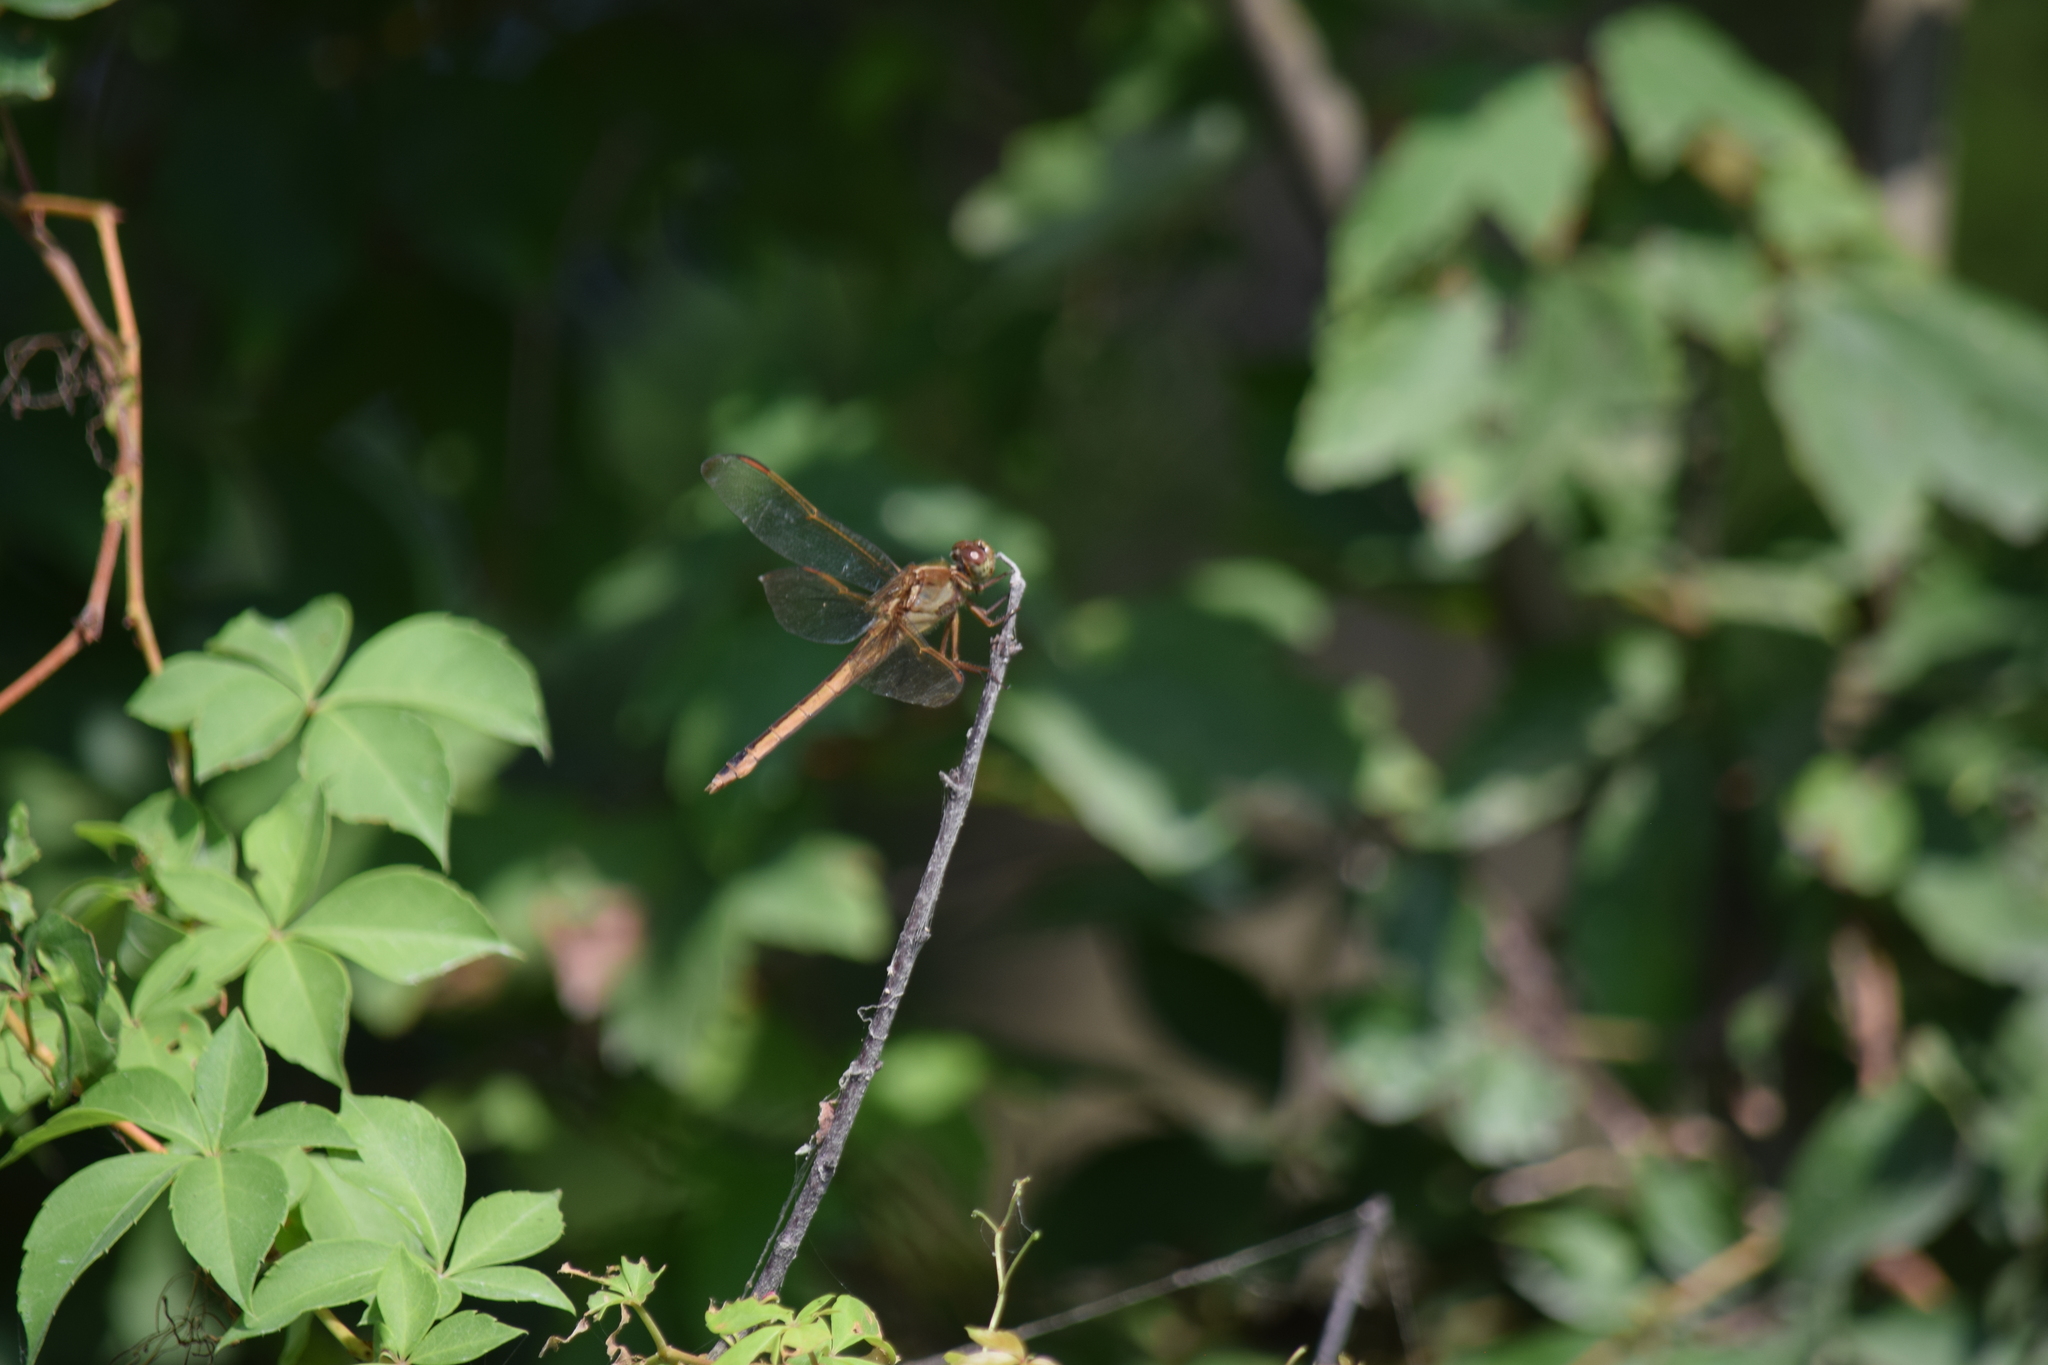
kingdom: Animalia
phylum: Arthropoda
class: Insecta
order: Odonata
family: Libellulidae
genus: Libellula
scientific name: Libellula needhami
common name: Needham's skimmer
